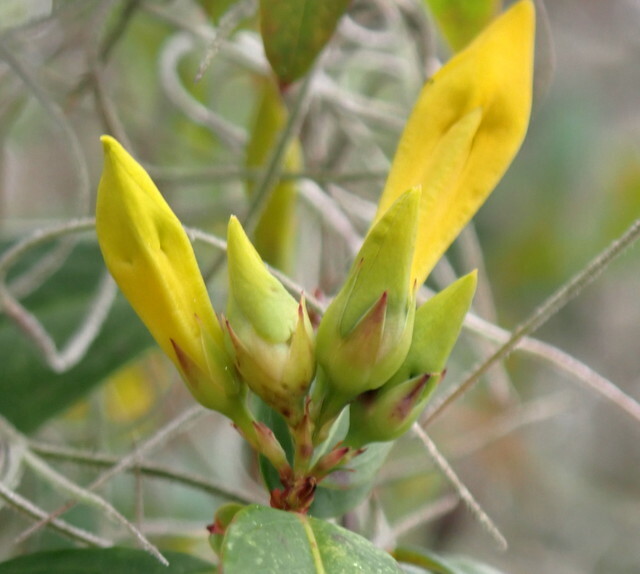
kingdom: Plantae
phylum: Tracheophyta
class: Magnoliopsida
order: Gentianales
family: Gelsemiaceae
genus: Gelsemium
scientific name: Gelsemium sempervirens
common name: Carolina-jasmine
